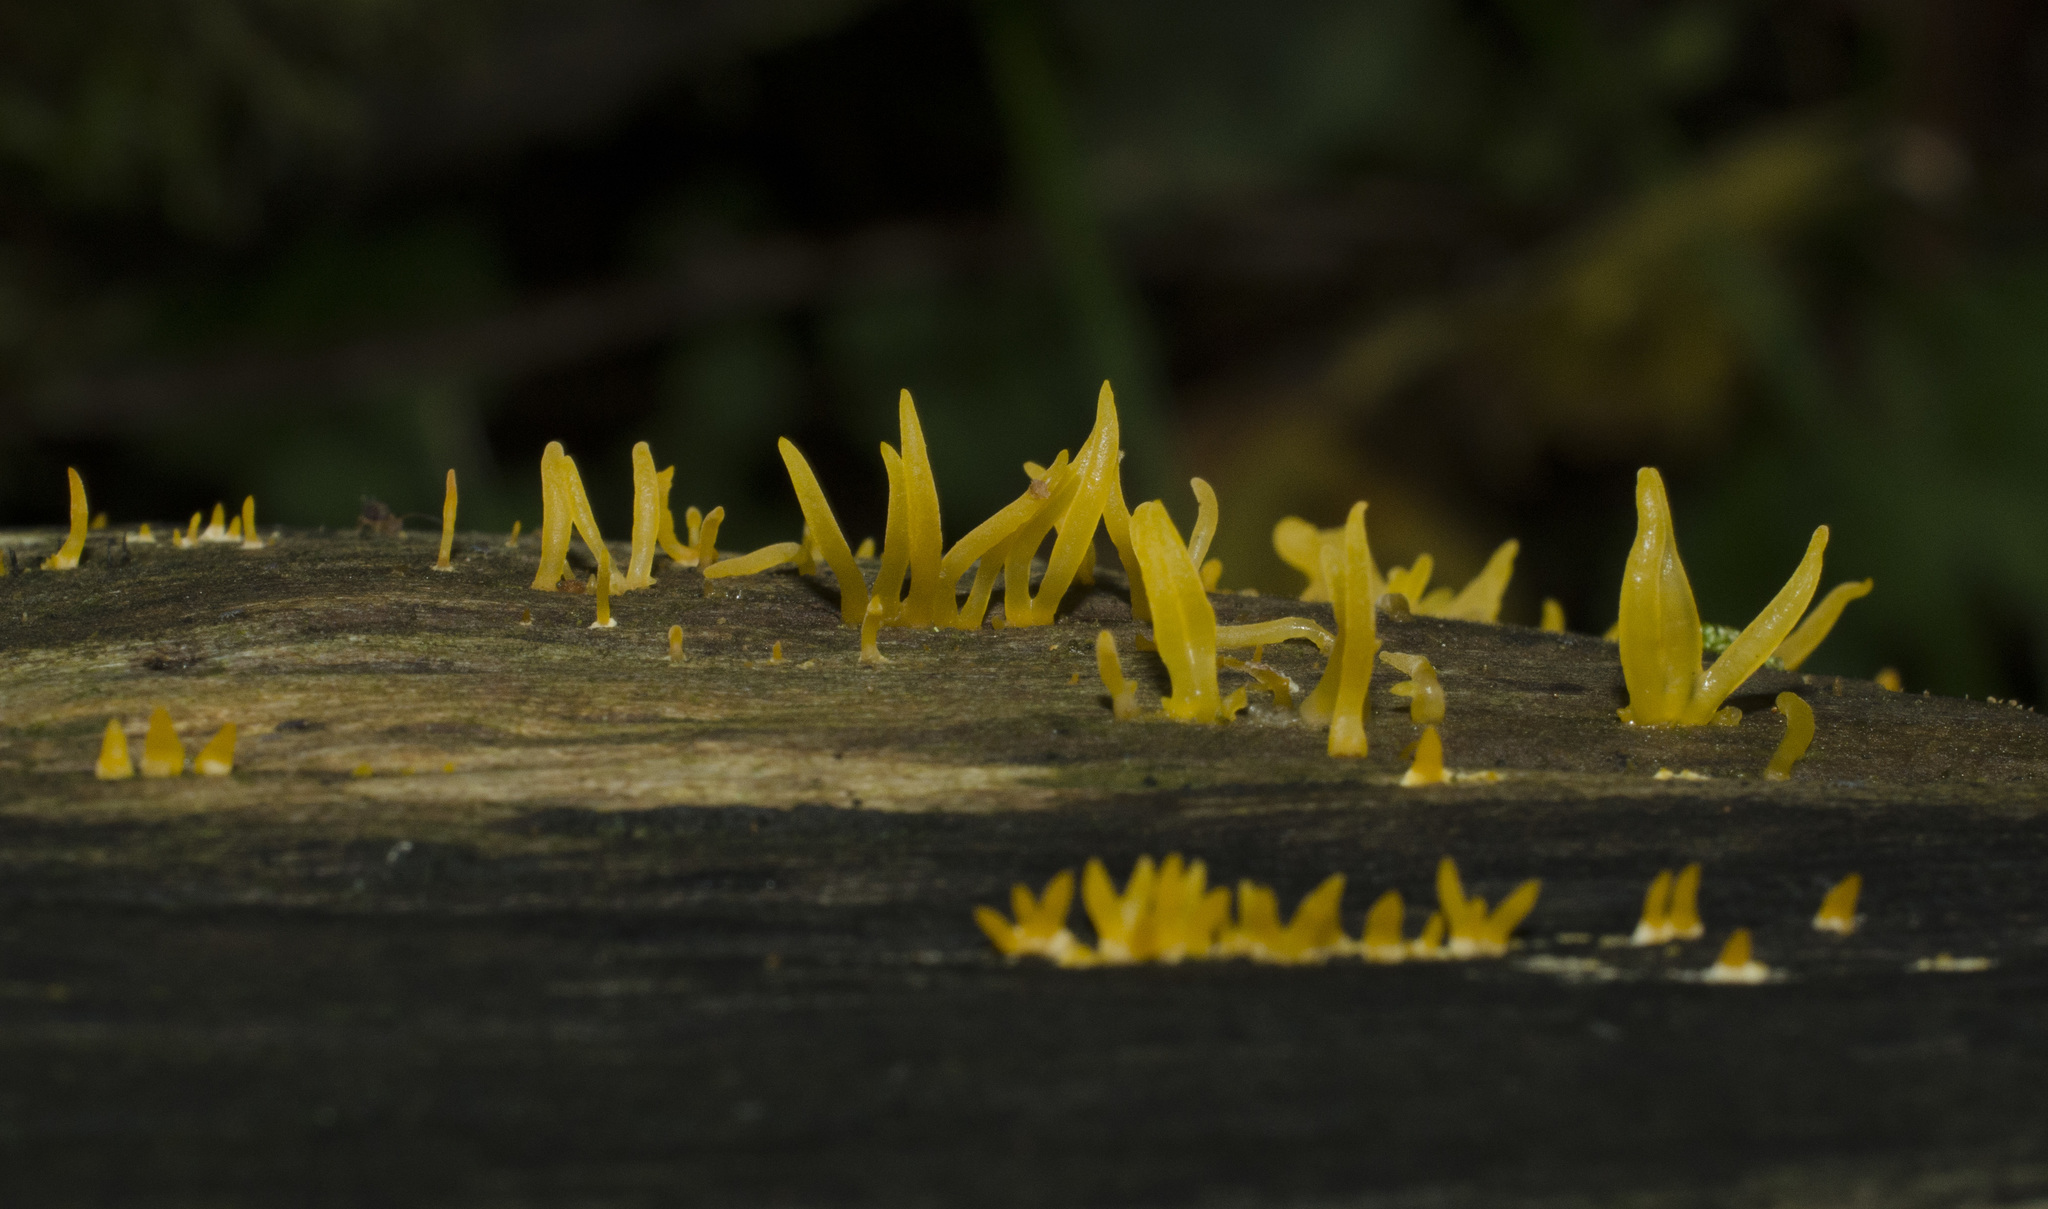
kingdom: Fungi
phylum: Basidiomycota
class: Dacrymycetes
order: Dacrymycetales
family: Dacrymycetaceae
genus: Calocera
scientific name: Calocera cornea
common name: Small stagshorn
